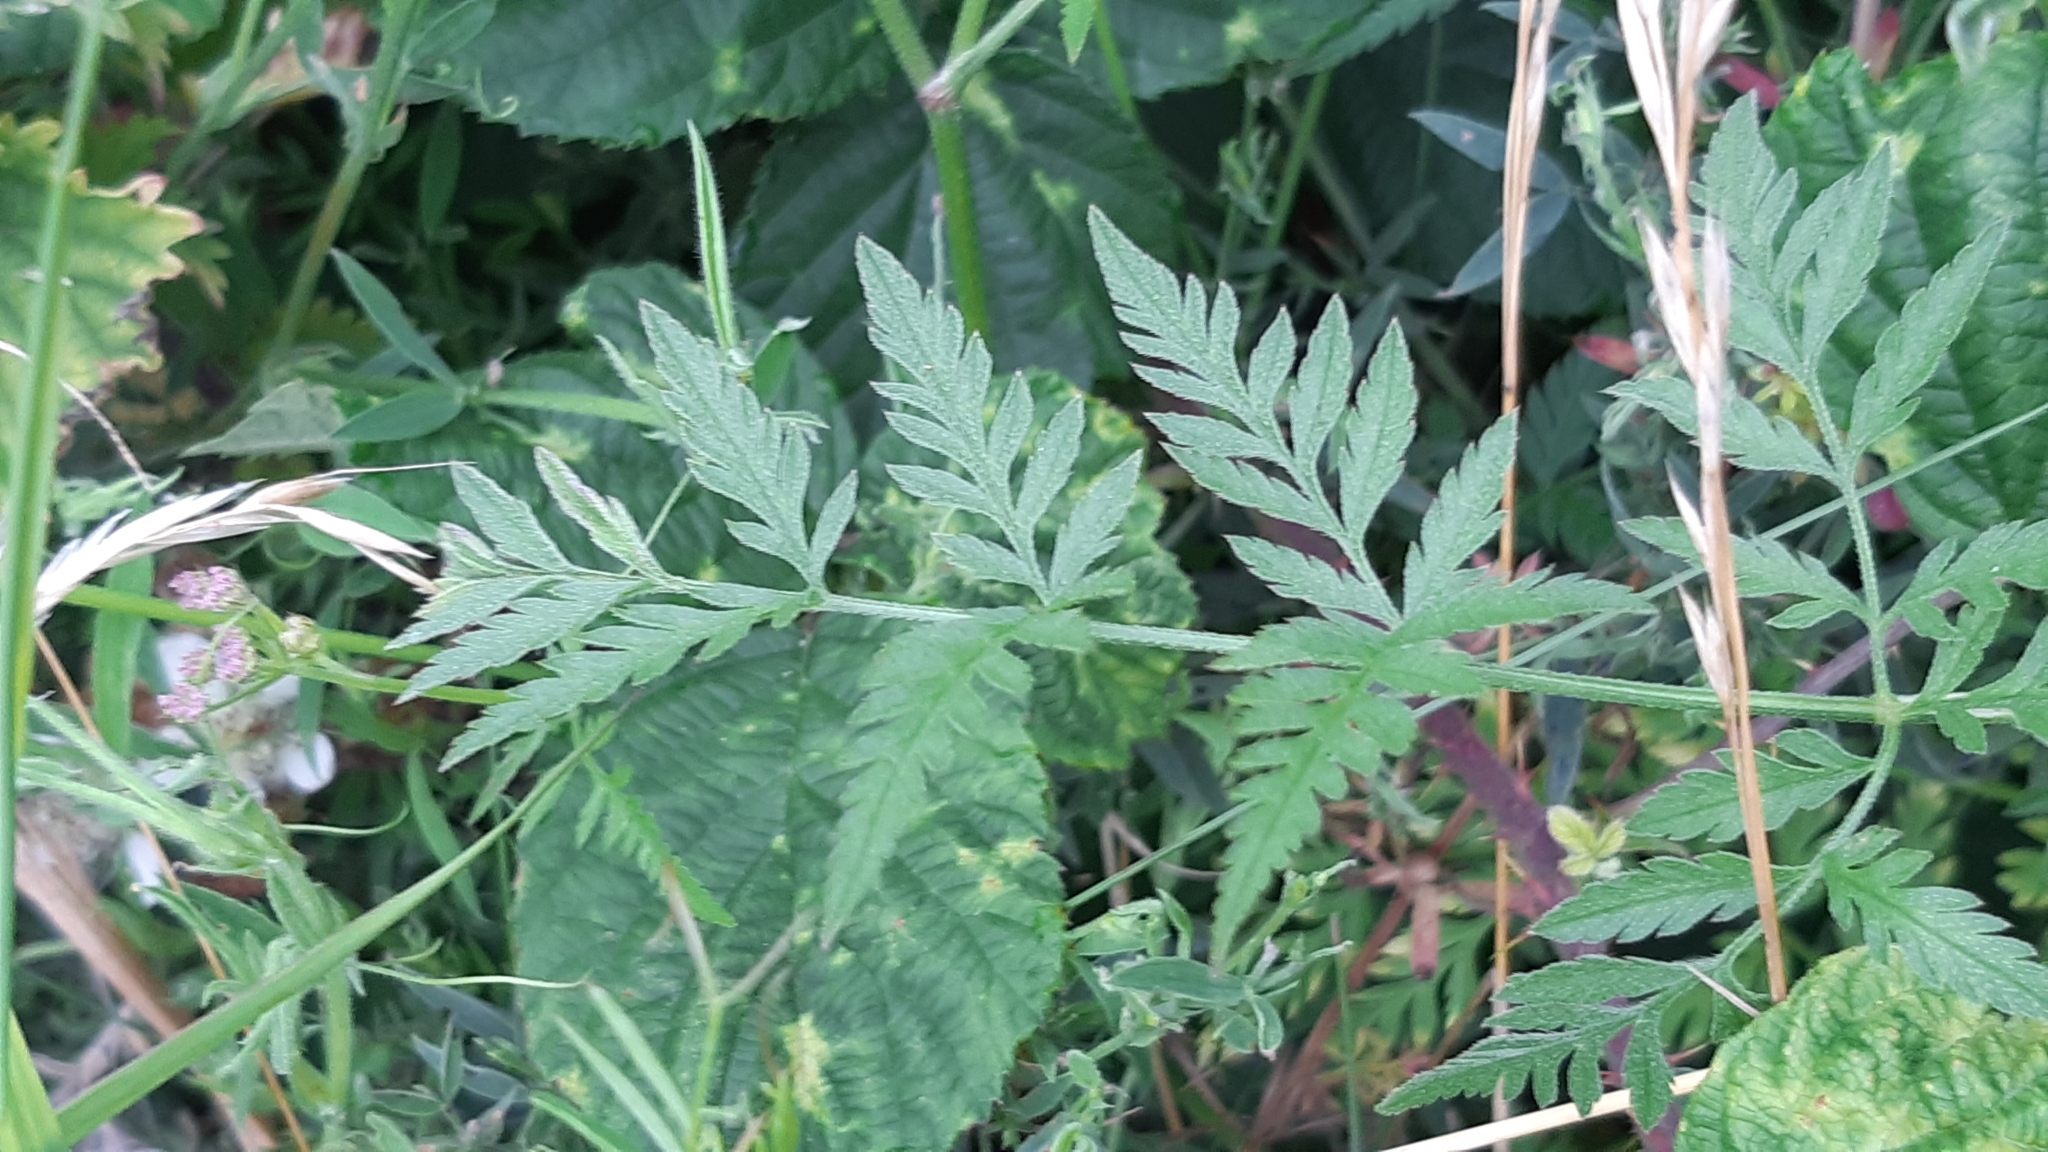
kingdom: Plantae
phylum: Tracheophyta
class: Magnoliopsida
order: Apiales
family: Apiaceae
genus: Torilis
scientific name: Torilis japonica
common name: Upright hedge-parsley
